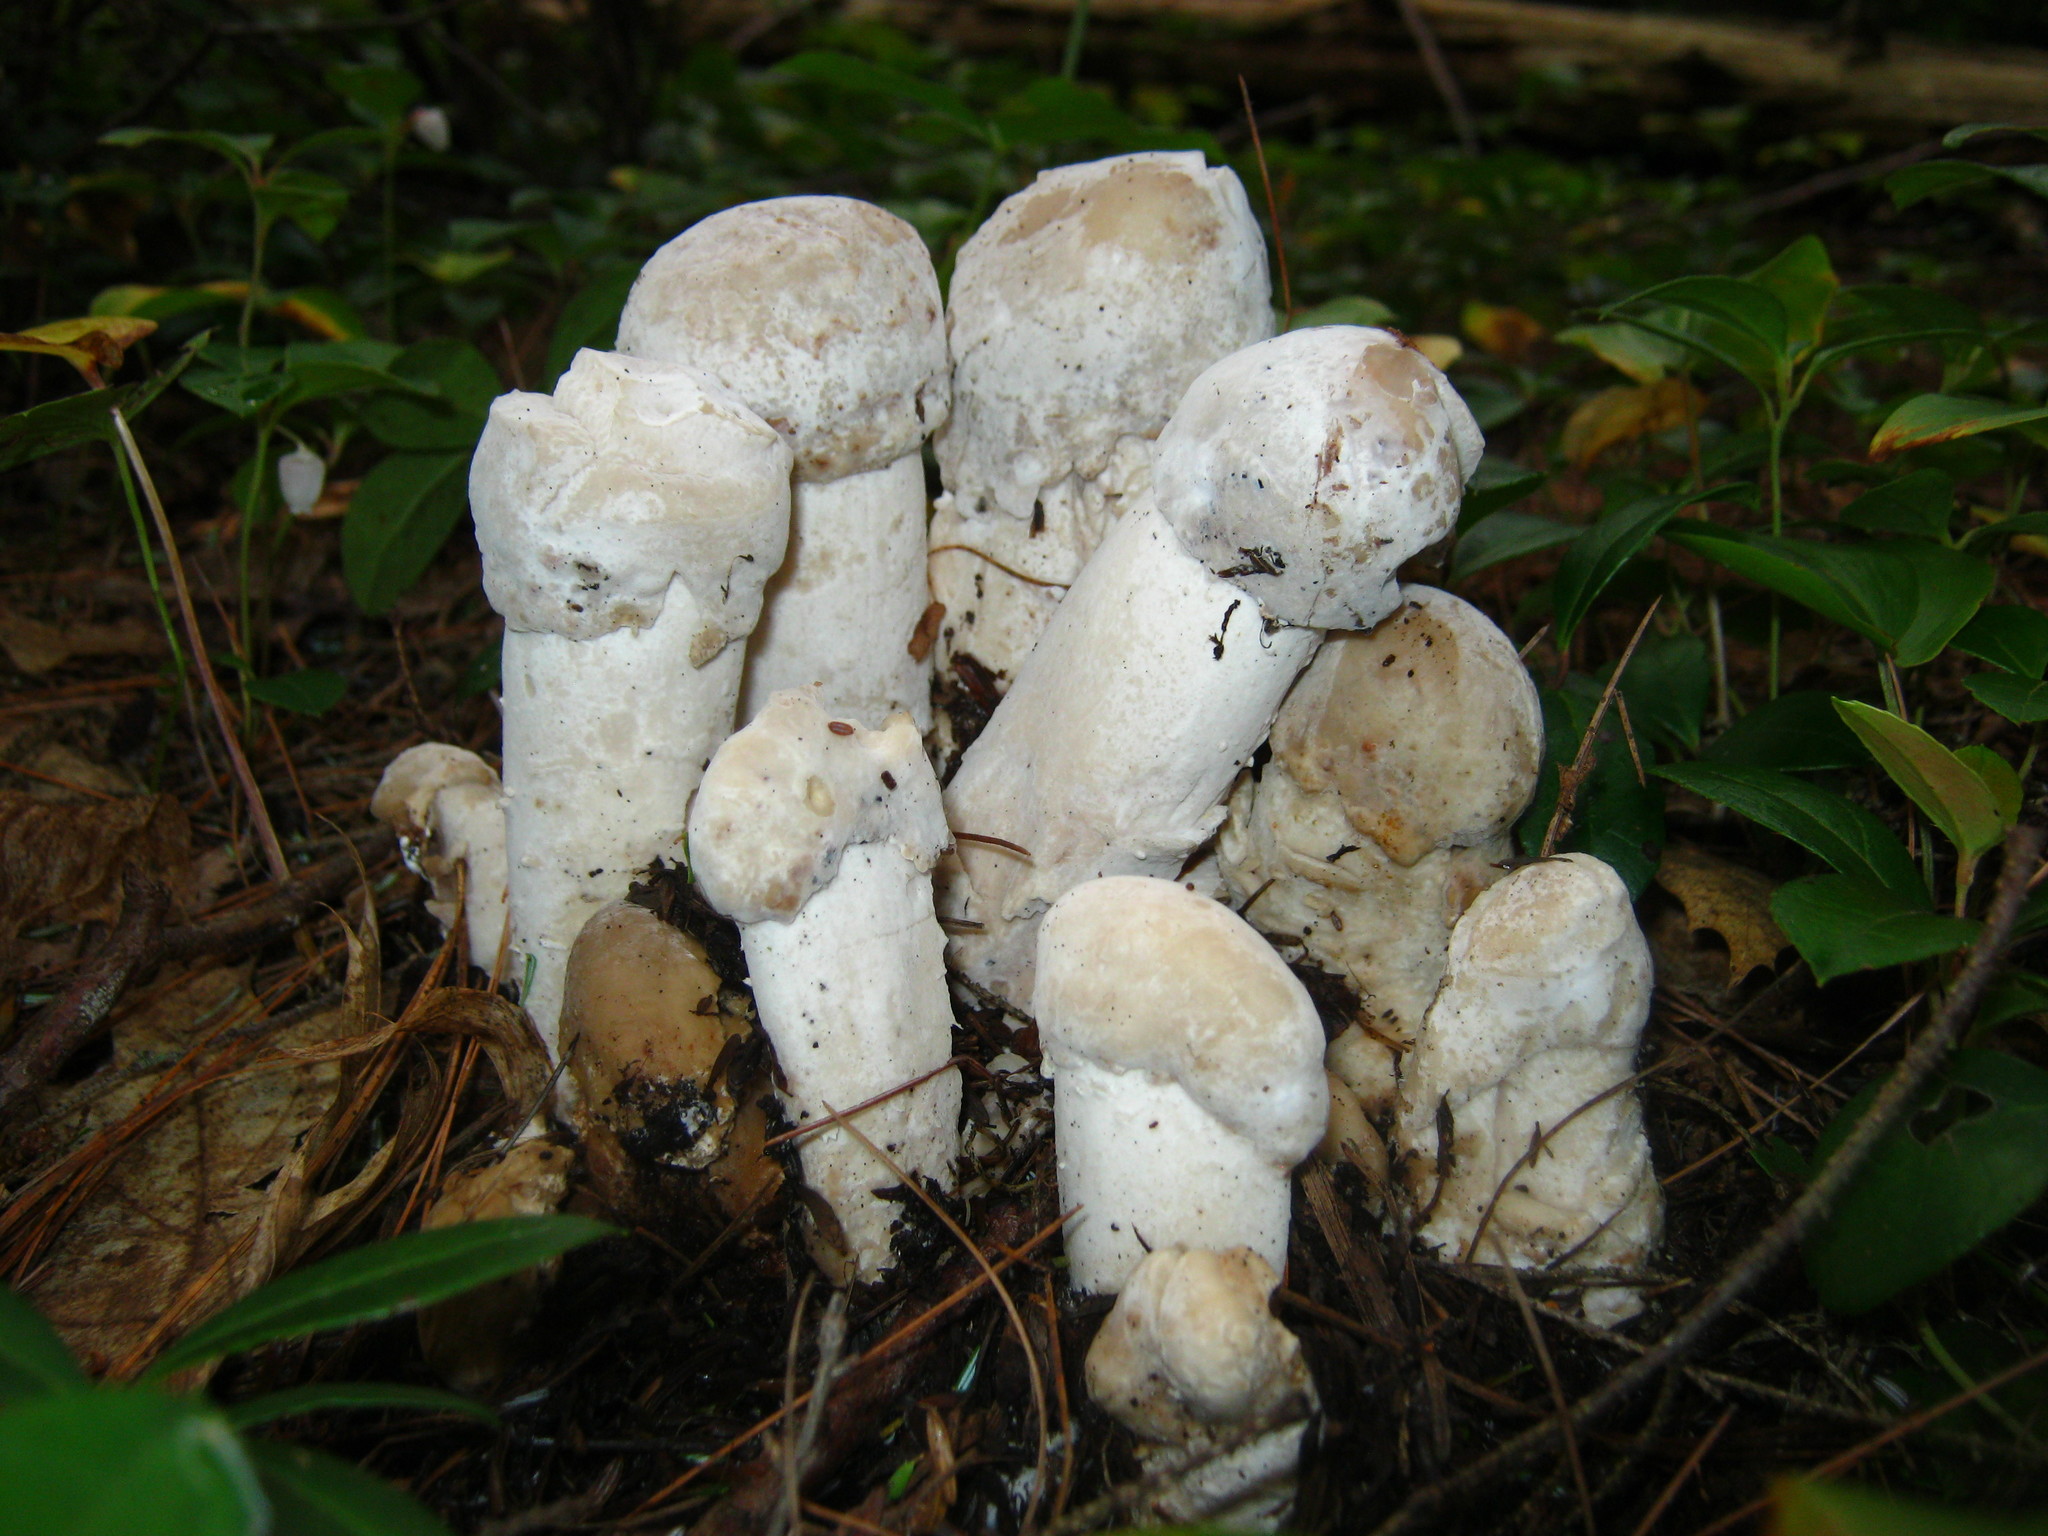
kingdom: Fungi
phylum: Ascomycota
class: Sordariomycetes
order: Hypocreales
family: Hypocreaceae
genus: Hypomyces
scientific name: Hypomyces hyalinus
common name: Amanita mold
